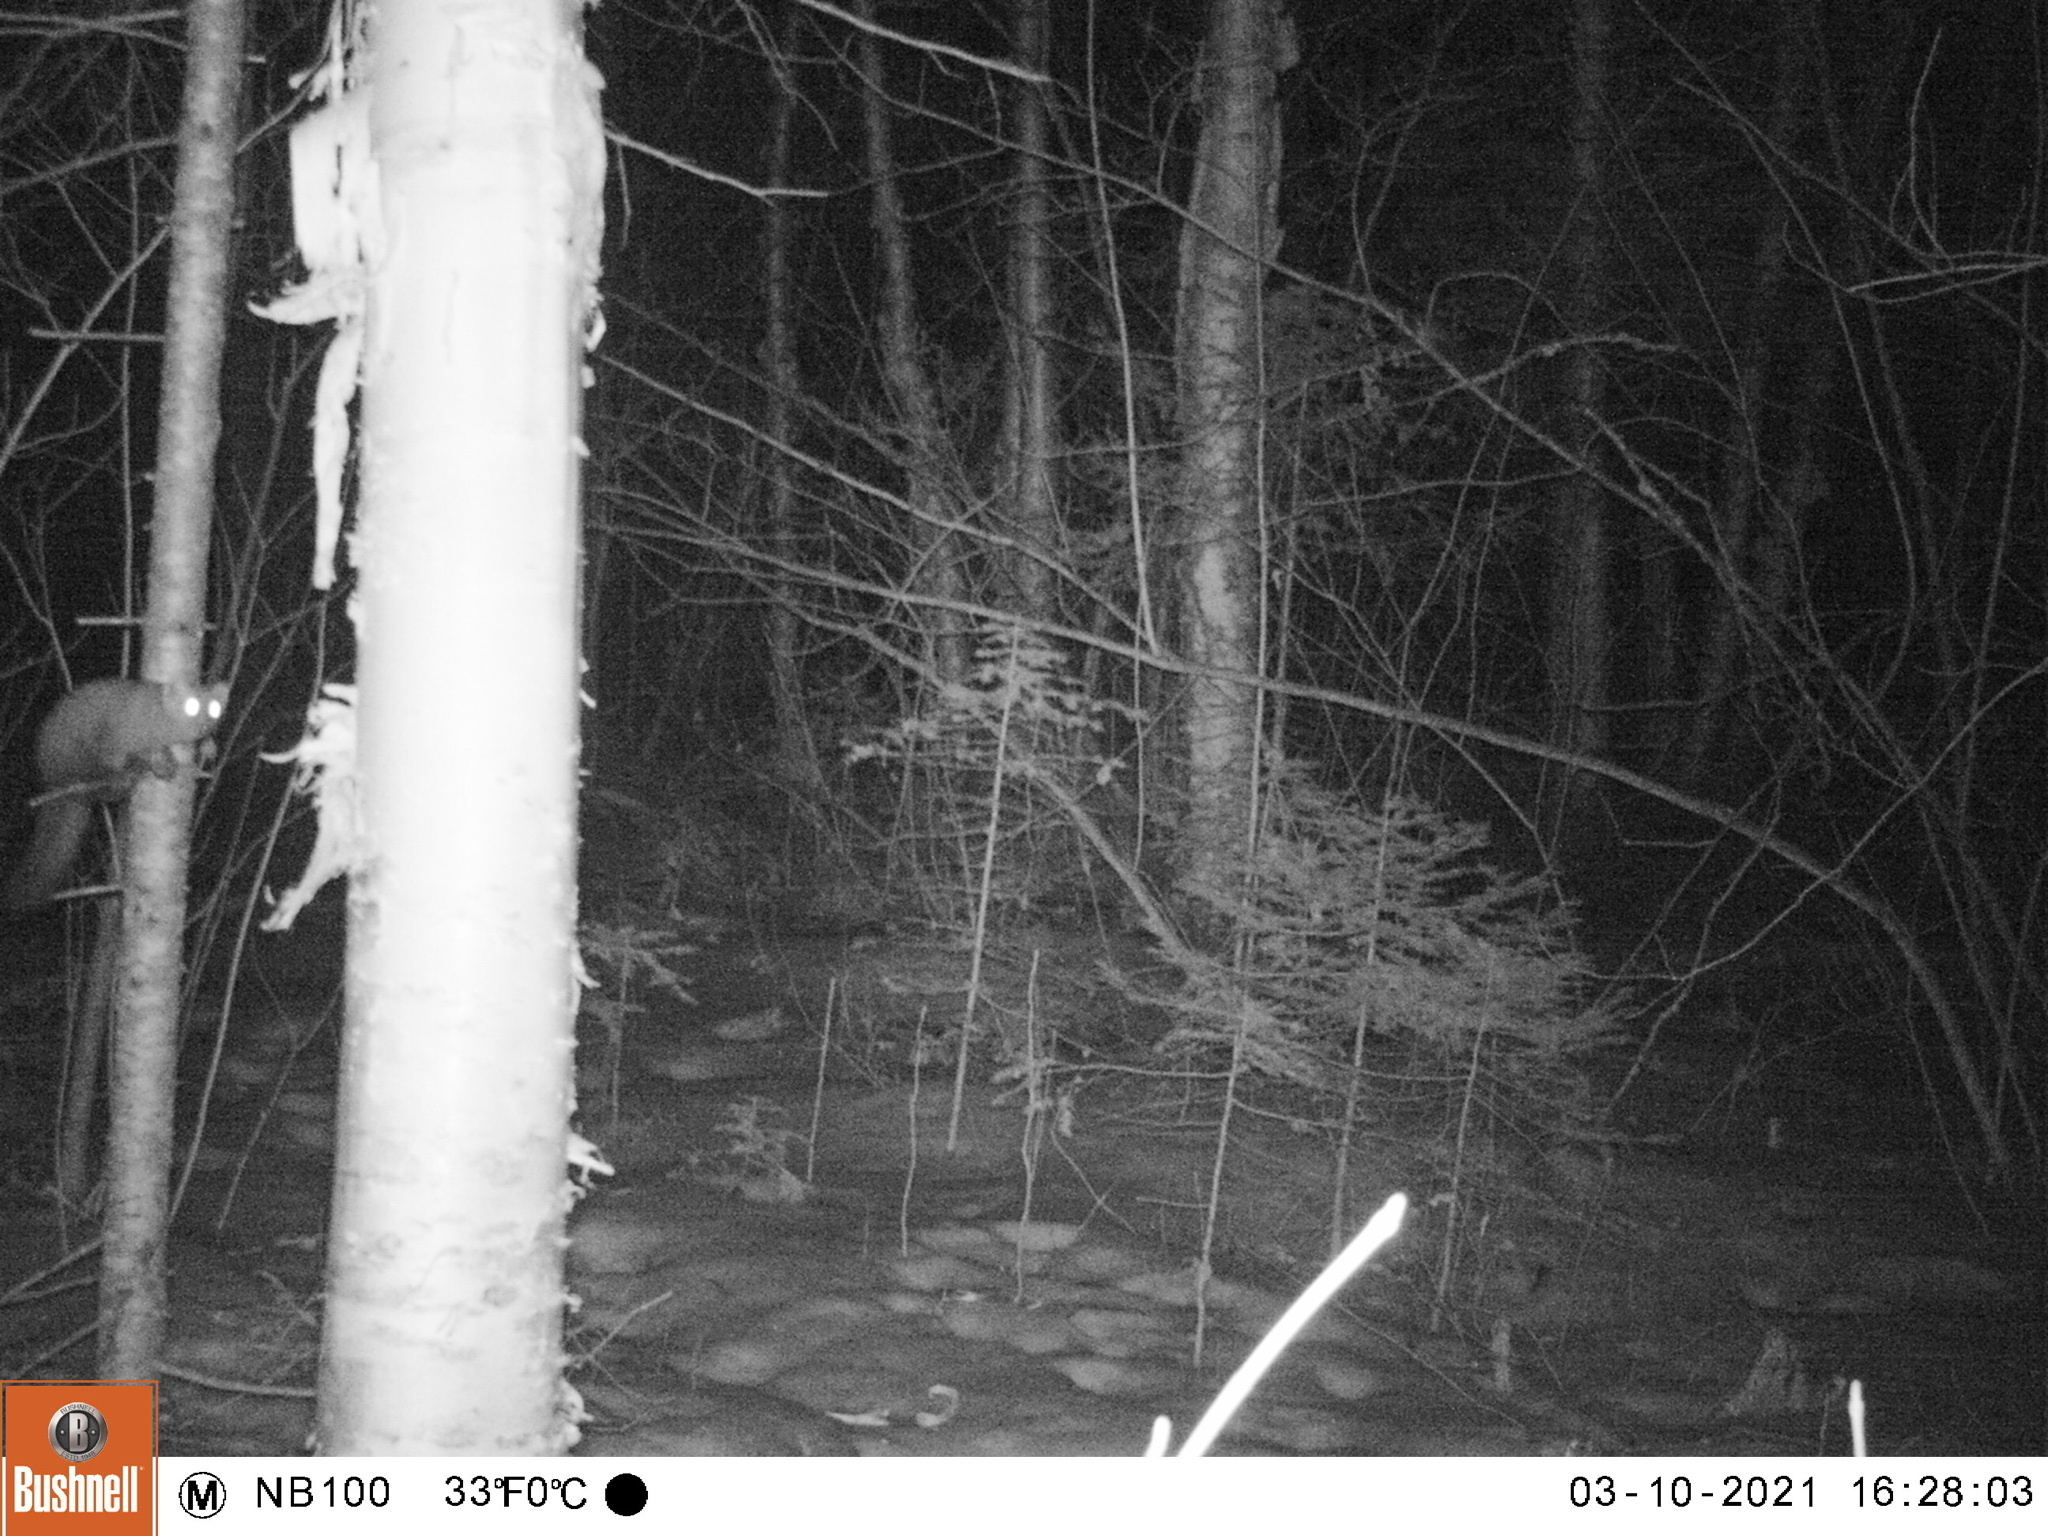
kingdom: Animalia
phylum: Chordata
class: Mammalia
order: Carnivora
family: Mustelidae
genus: Martes
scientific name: Martes americana
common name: American marten
